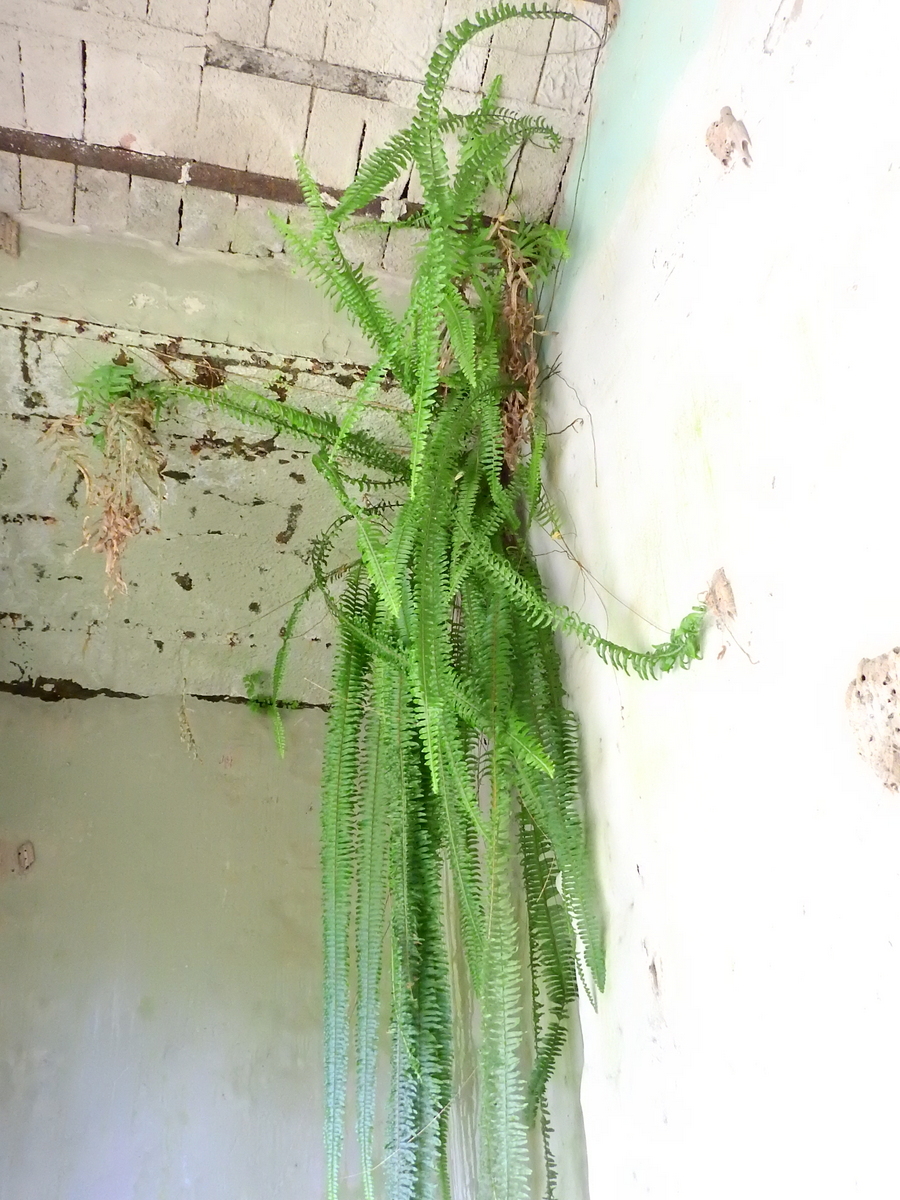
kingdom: Plantae
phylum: Tracheophyta
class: Polypodiopsida
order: Polypodiales
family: Nephrolepidaceae
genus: Nephrolepis
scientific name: Nephrolepis cordifolia
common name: Narrow swordfern
